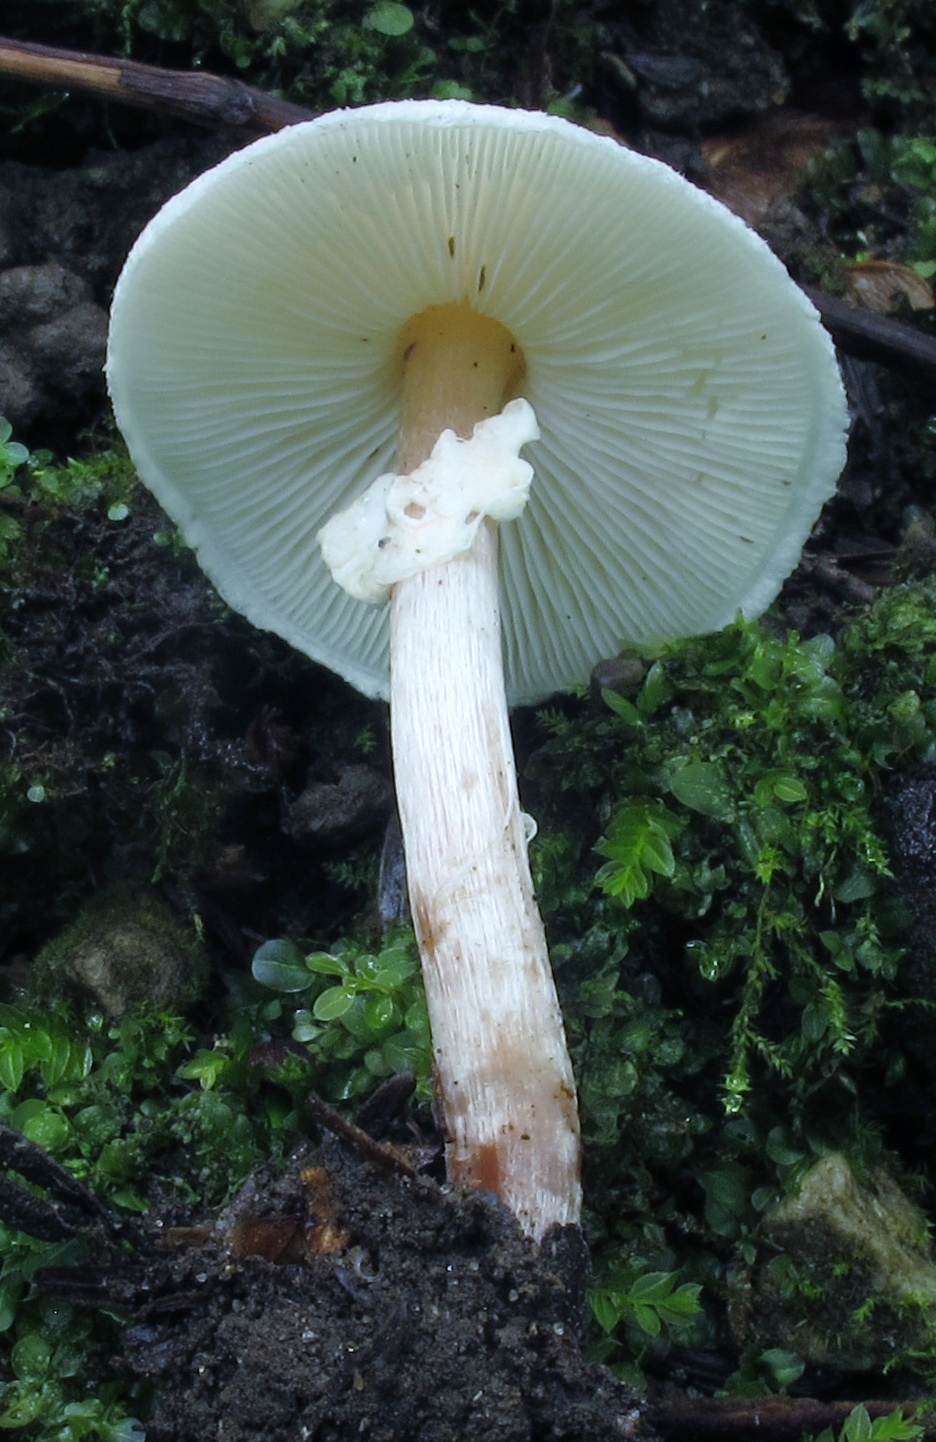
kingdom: Fungi
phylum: Basidiomycota
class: Agaricomycetes
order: Agaricales
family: Agaricaceae
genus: Lepiota
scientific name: Lepiota cristata
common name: Stinking dapperling
